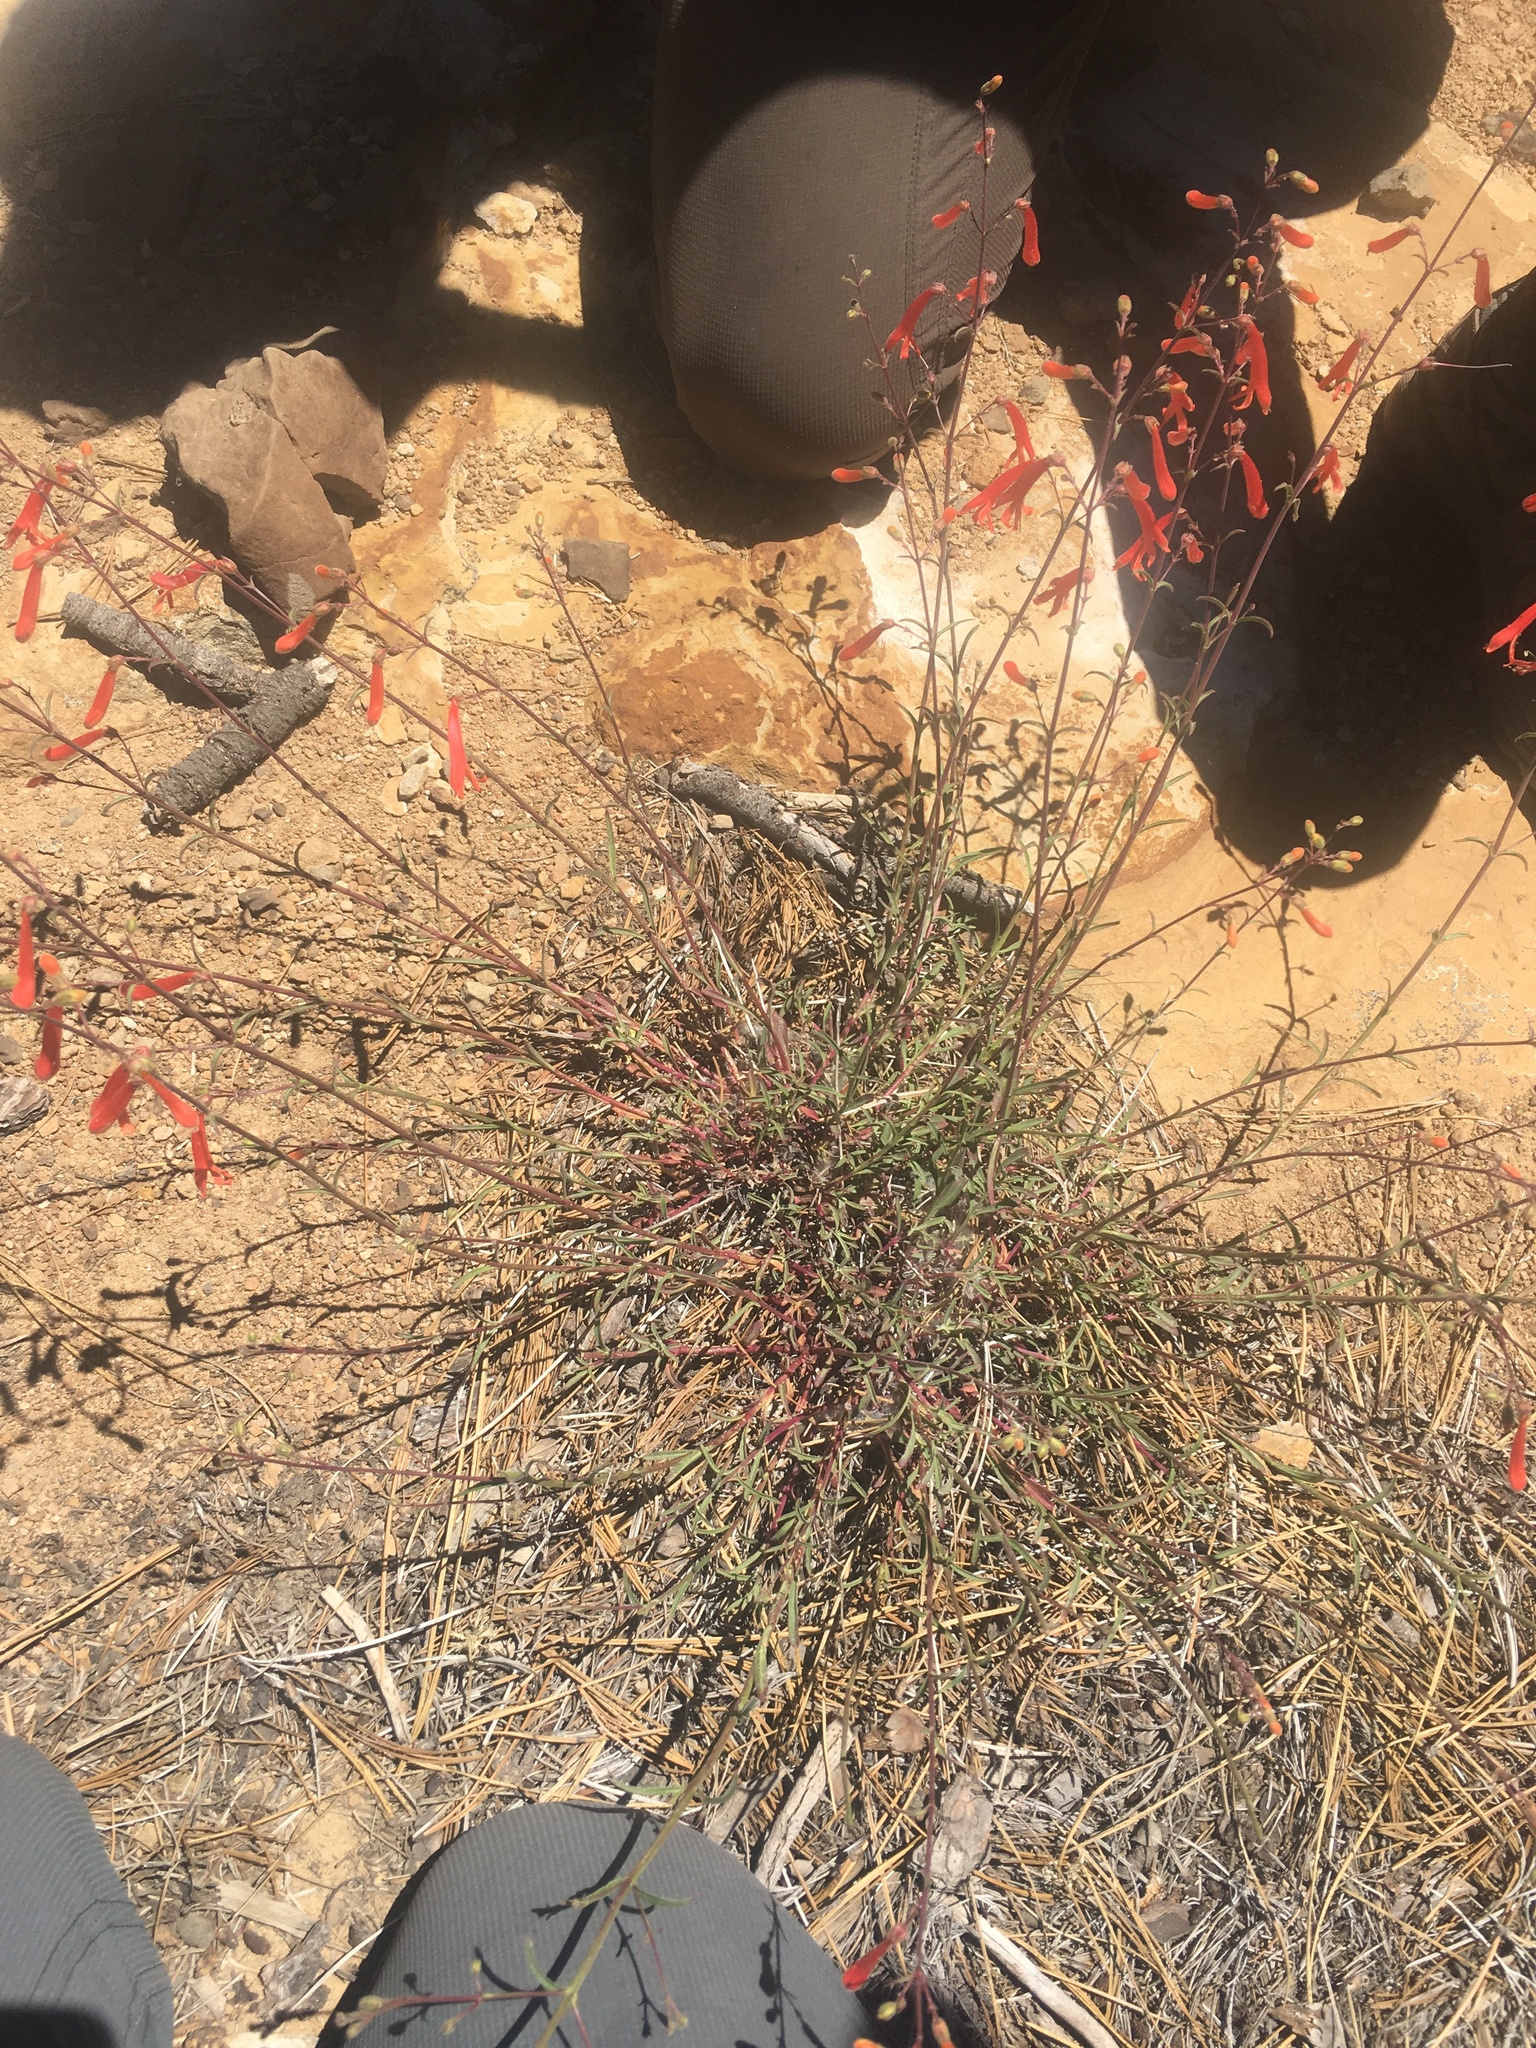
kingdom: Plantae
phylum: Tracheophyta
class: Magnoliopsida
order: Lamiales
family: Plantaginaceae
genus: Penstemon
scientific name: Penstemon rostriflorus
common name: Bridges's penstemon
